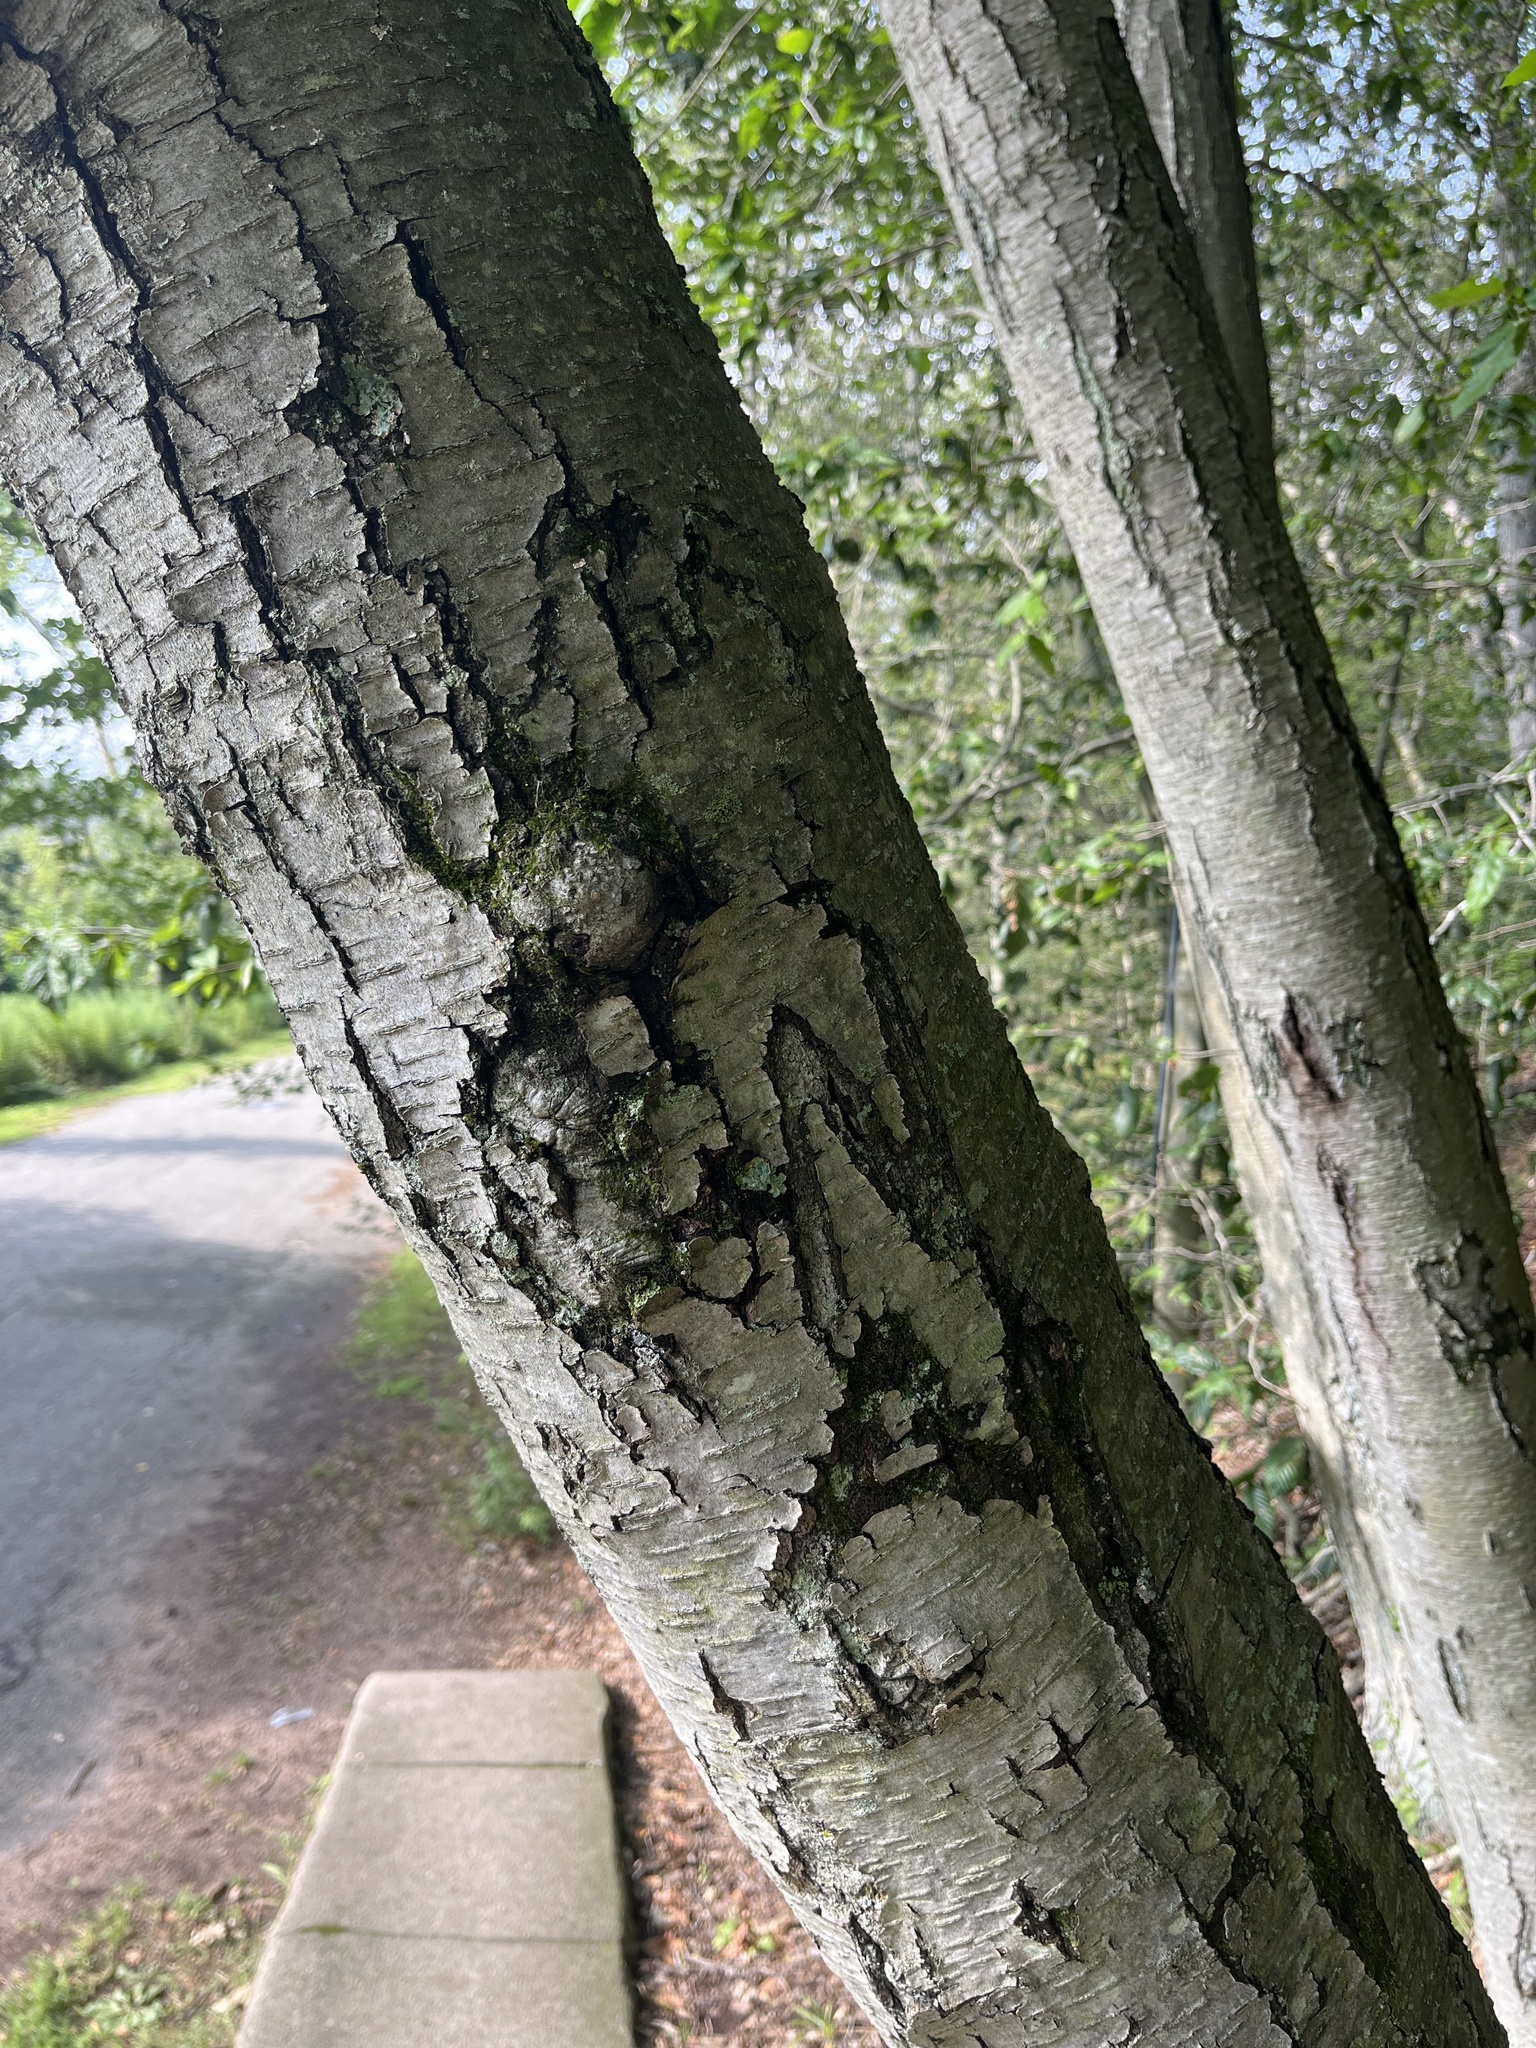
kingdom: Plantae
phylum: Tracheophyta
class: Magnoliopsida
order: Fagales
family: Betulaceae
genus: Betula
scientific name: Betula lenta
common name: Black birch
